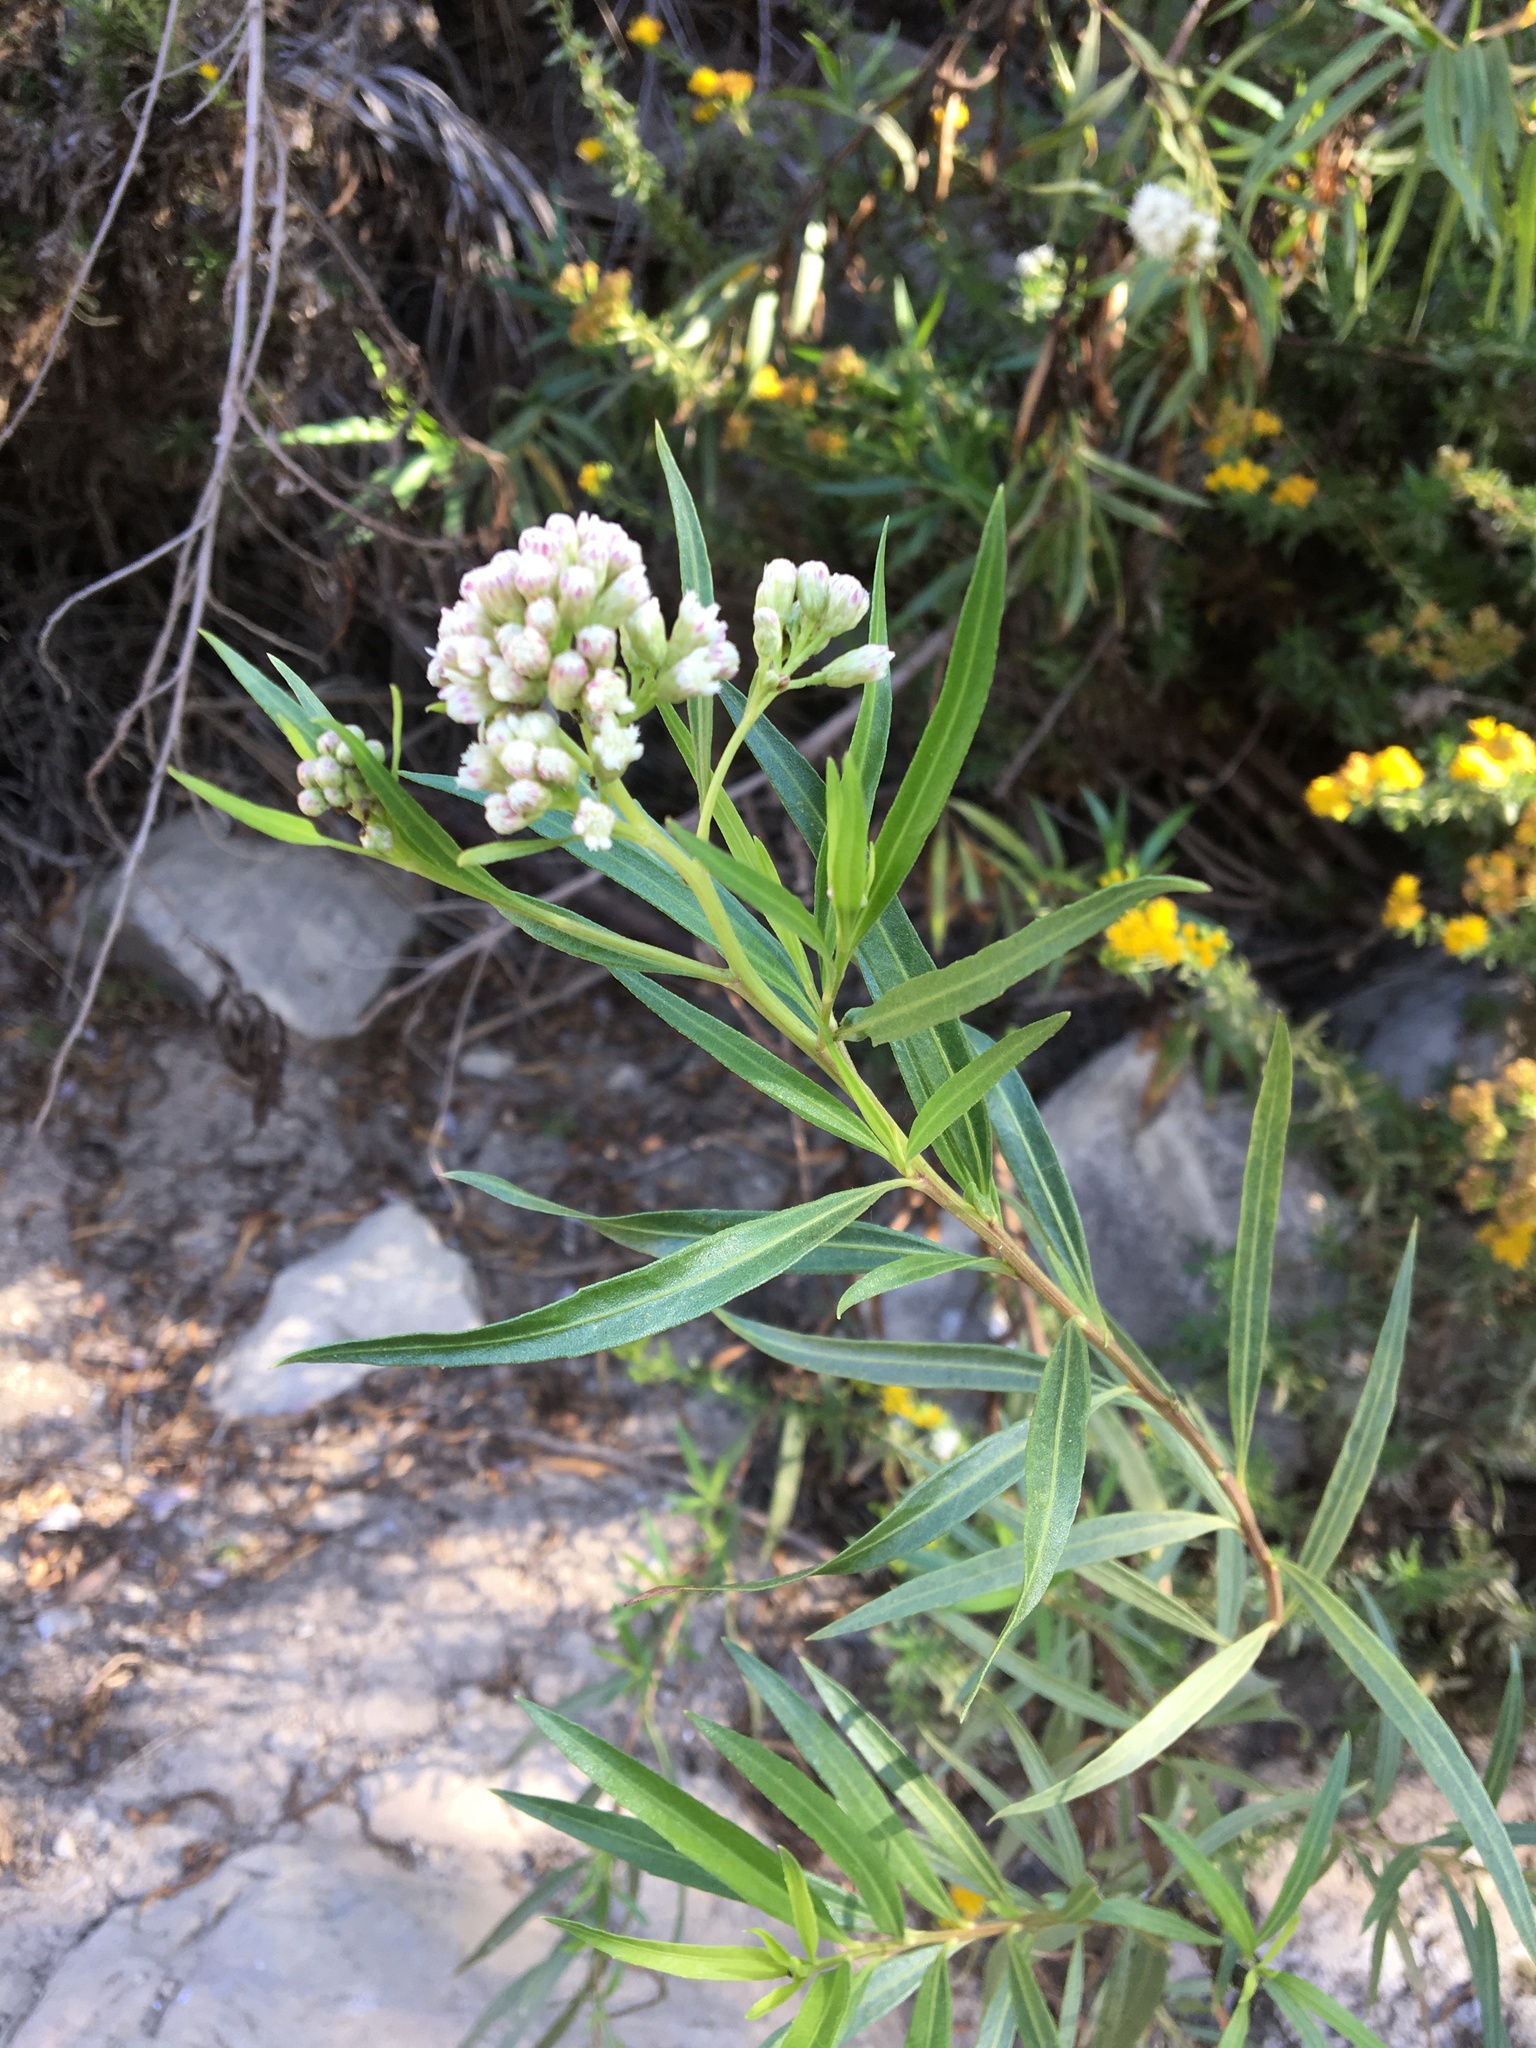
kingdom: Plantae
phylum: Tracheophyta
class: Magnoliopsida
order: Asterales
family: Asteraceae
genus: Baccharis
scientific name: Baccharis salicifolia
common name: Sticky baccharis
